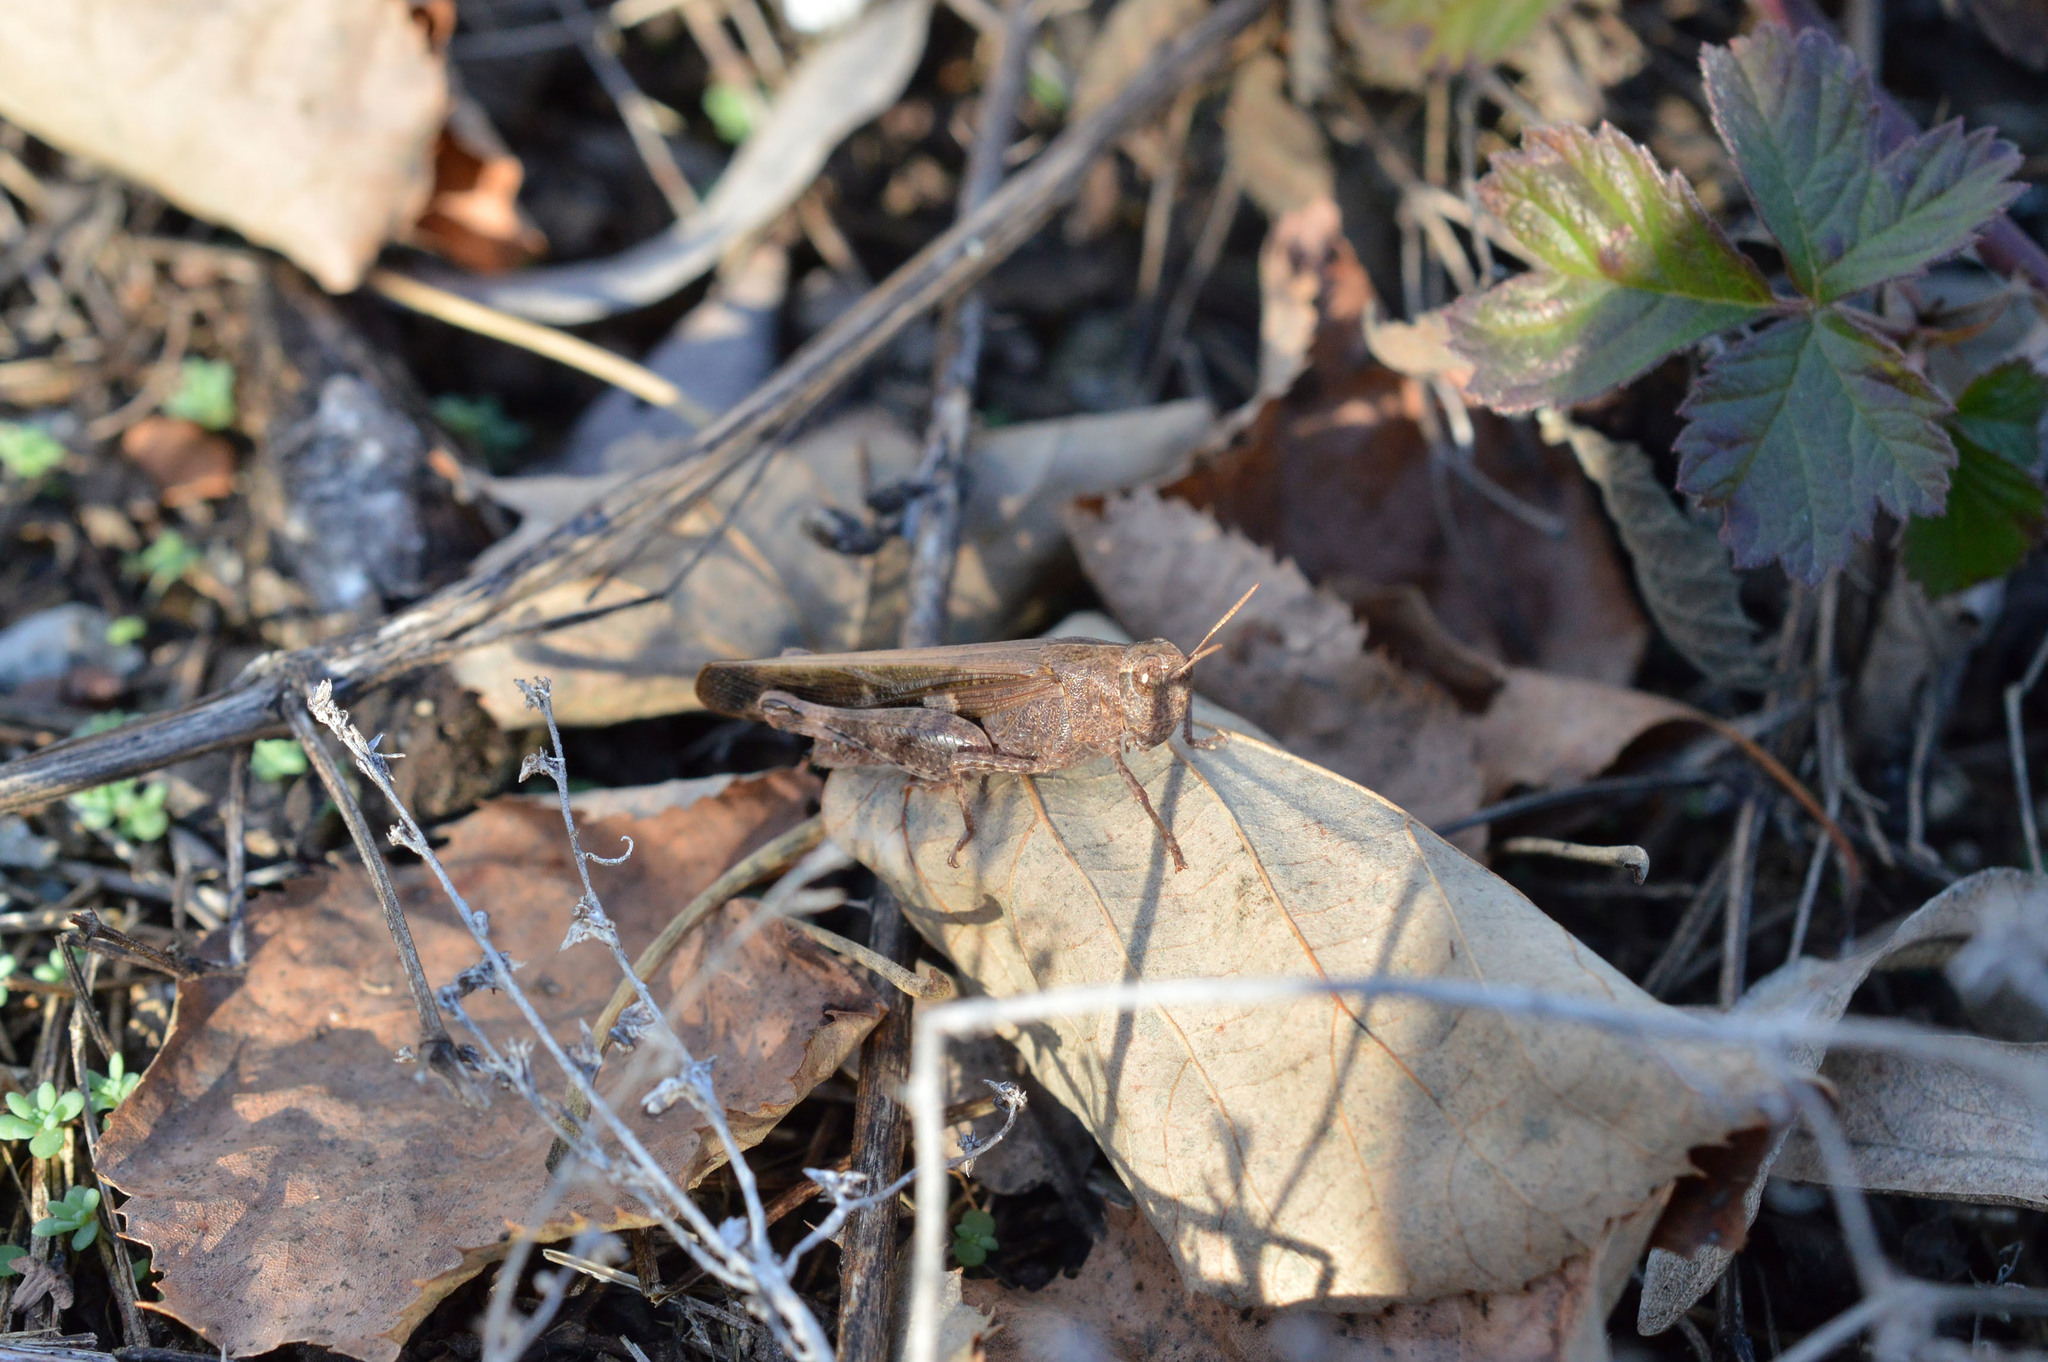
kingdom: Animalia
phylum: Arthropoda
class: Insecta
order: Orthoptera
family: Acrididae
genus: Aiolopus
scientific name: Aiolopus strepens
